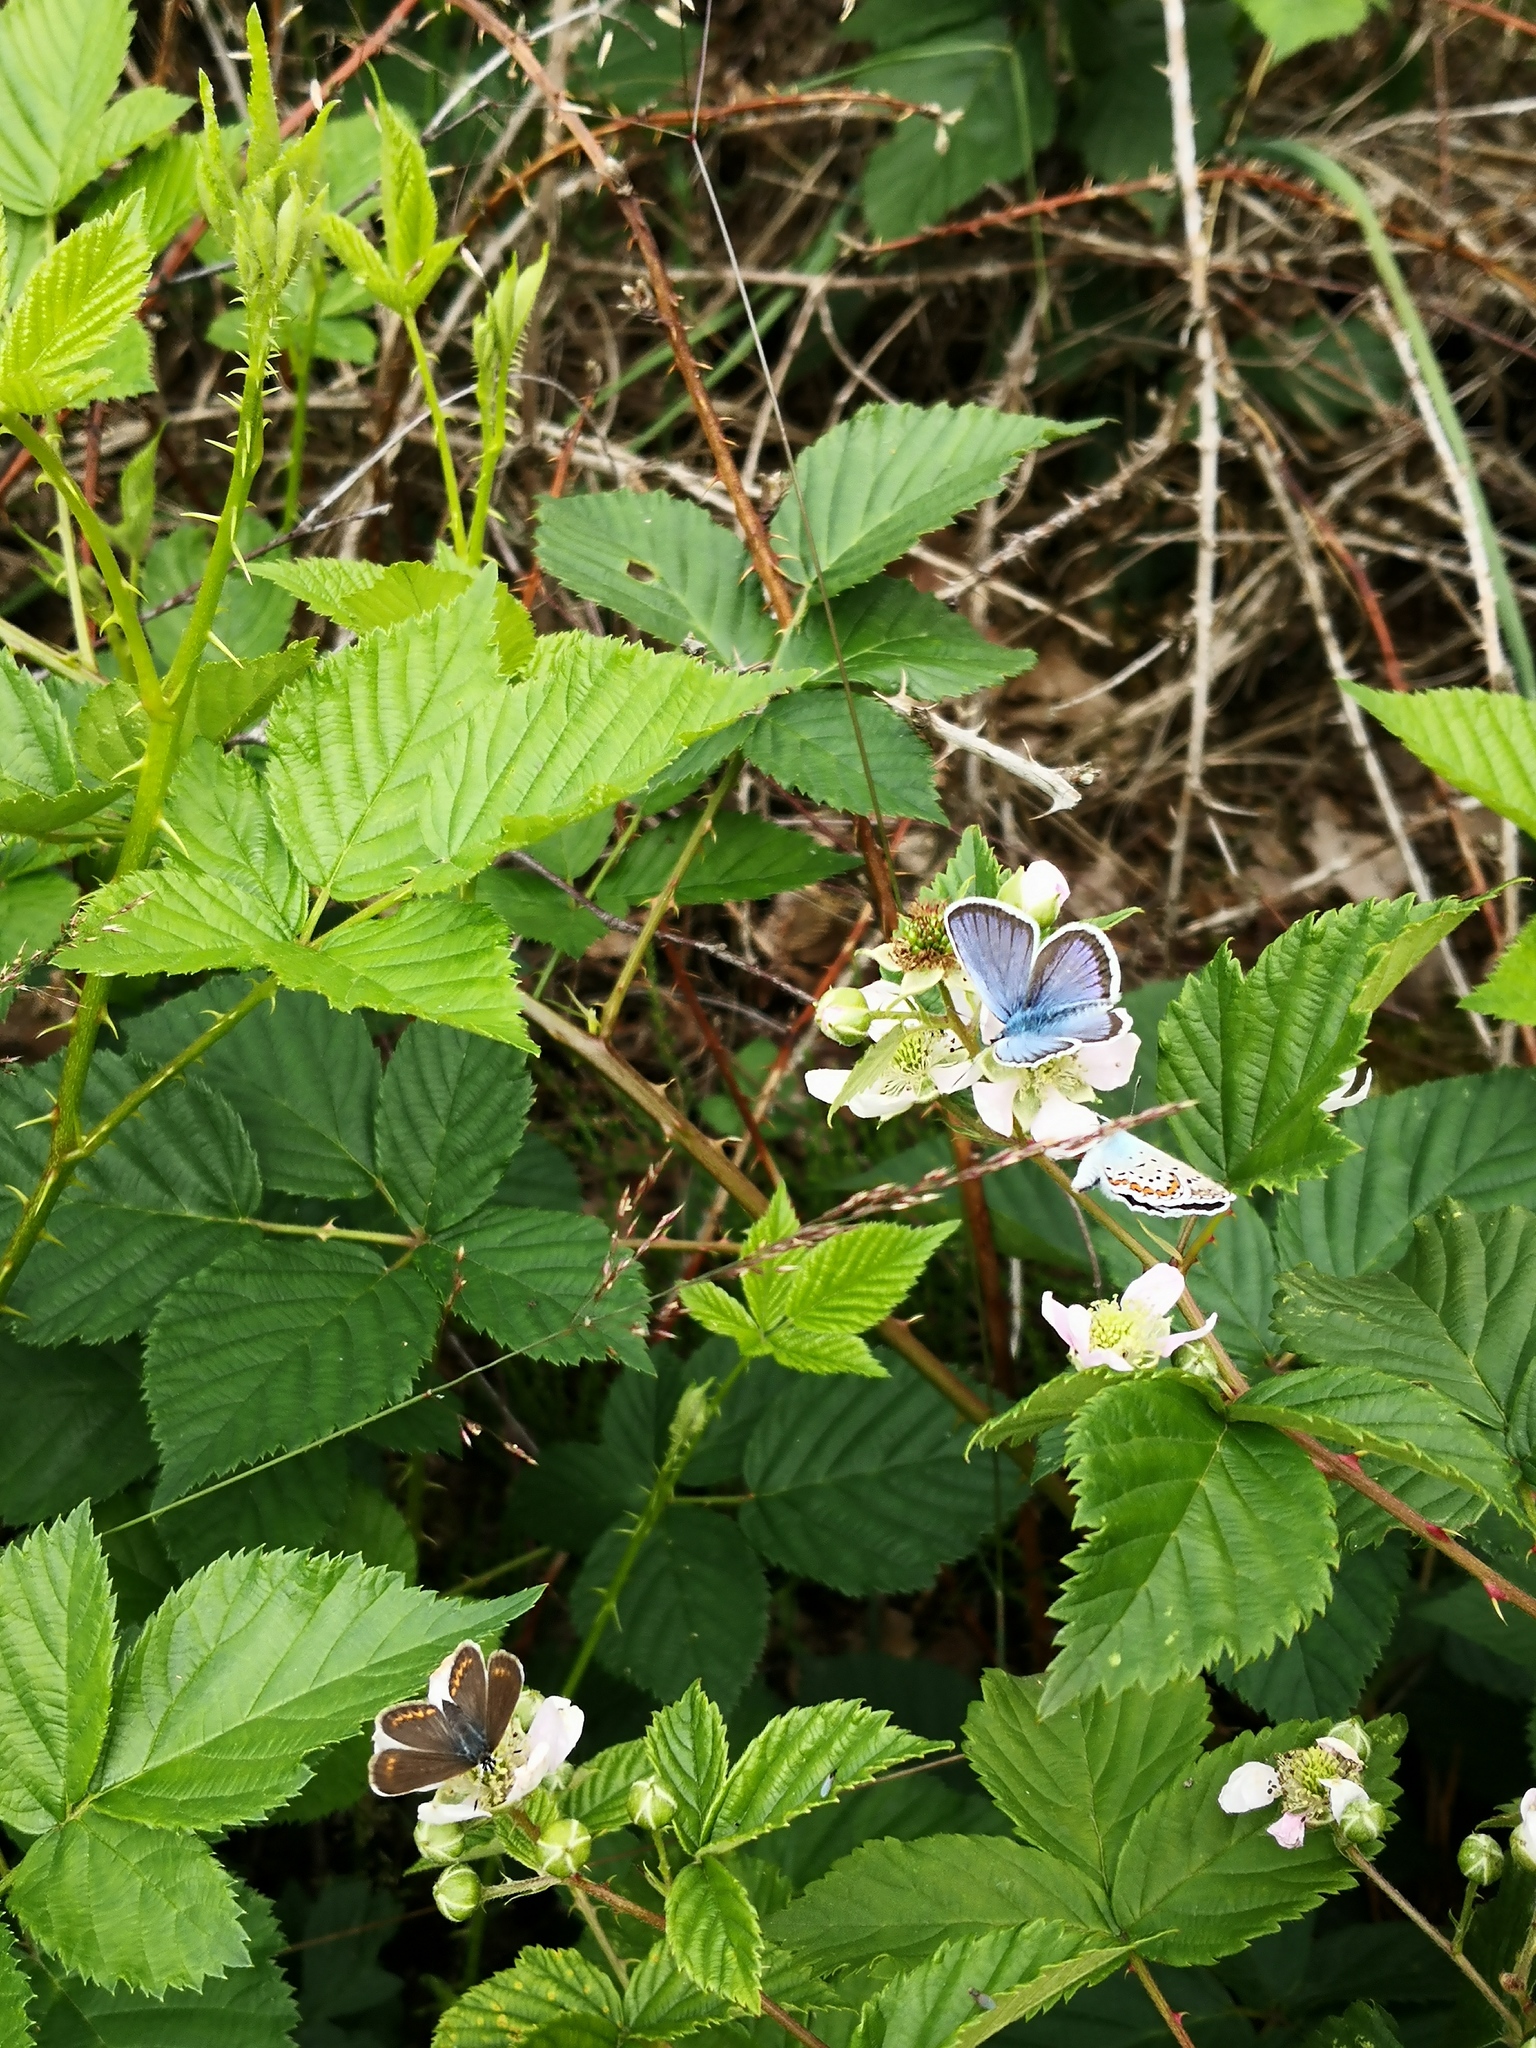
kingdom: Animalia
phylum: Arthropoda
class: Insecta
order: Lepidoptera
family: Lycaenidae
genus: Plebejus
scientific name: Plebejus argus
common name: Silver-studded blue
